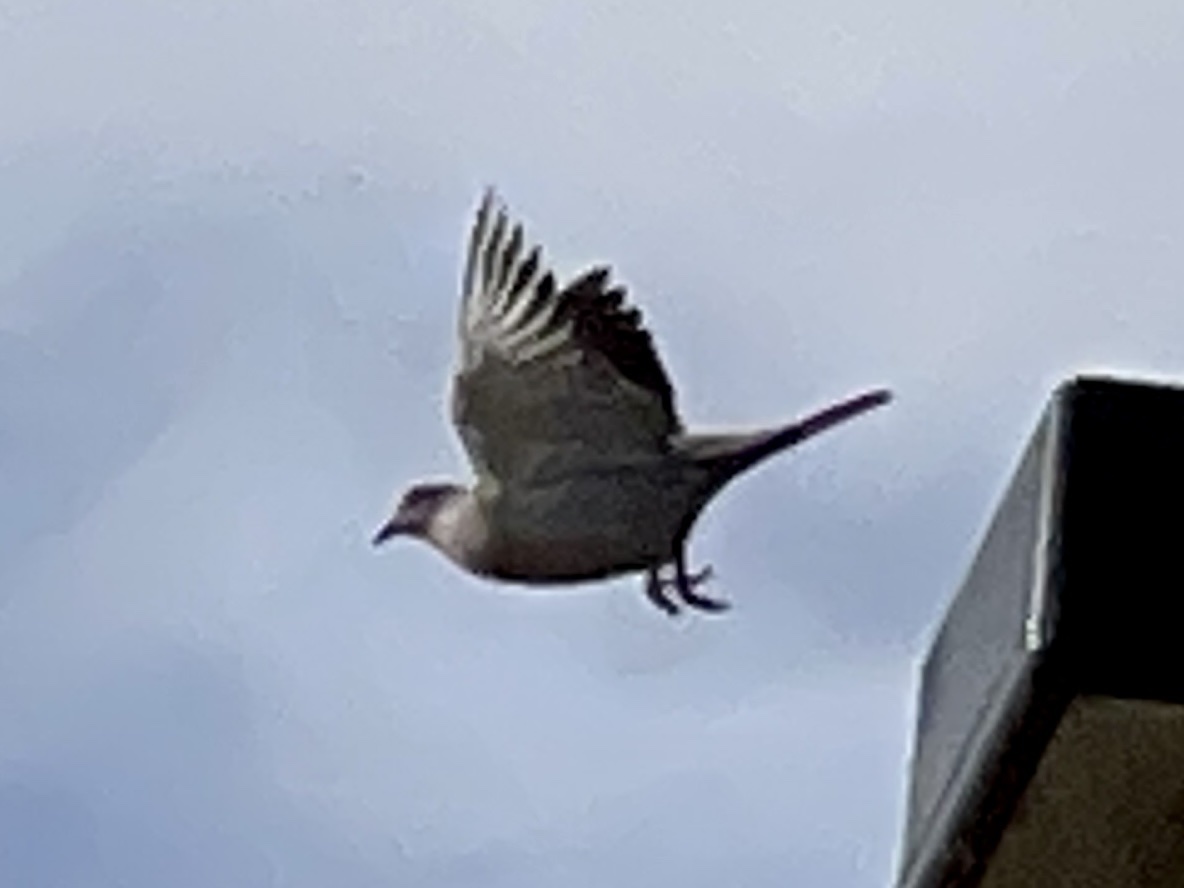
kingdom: Animalia
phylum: Chordata
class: Aves
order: Columbiformes
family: Columbidae
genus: Streptopelia
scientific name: Streptopelia decaocto
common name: Eurasian collared dove
